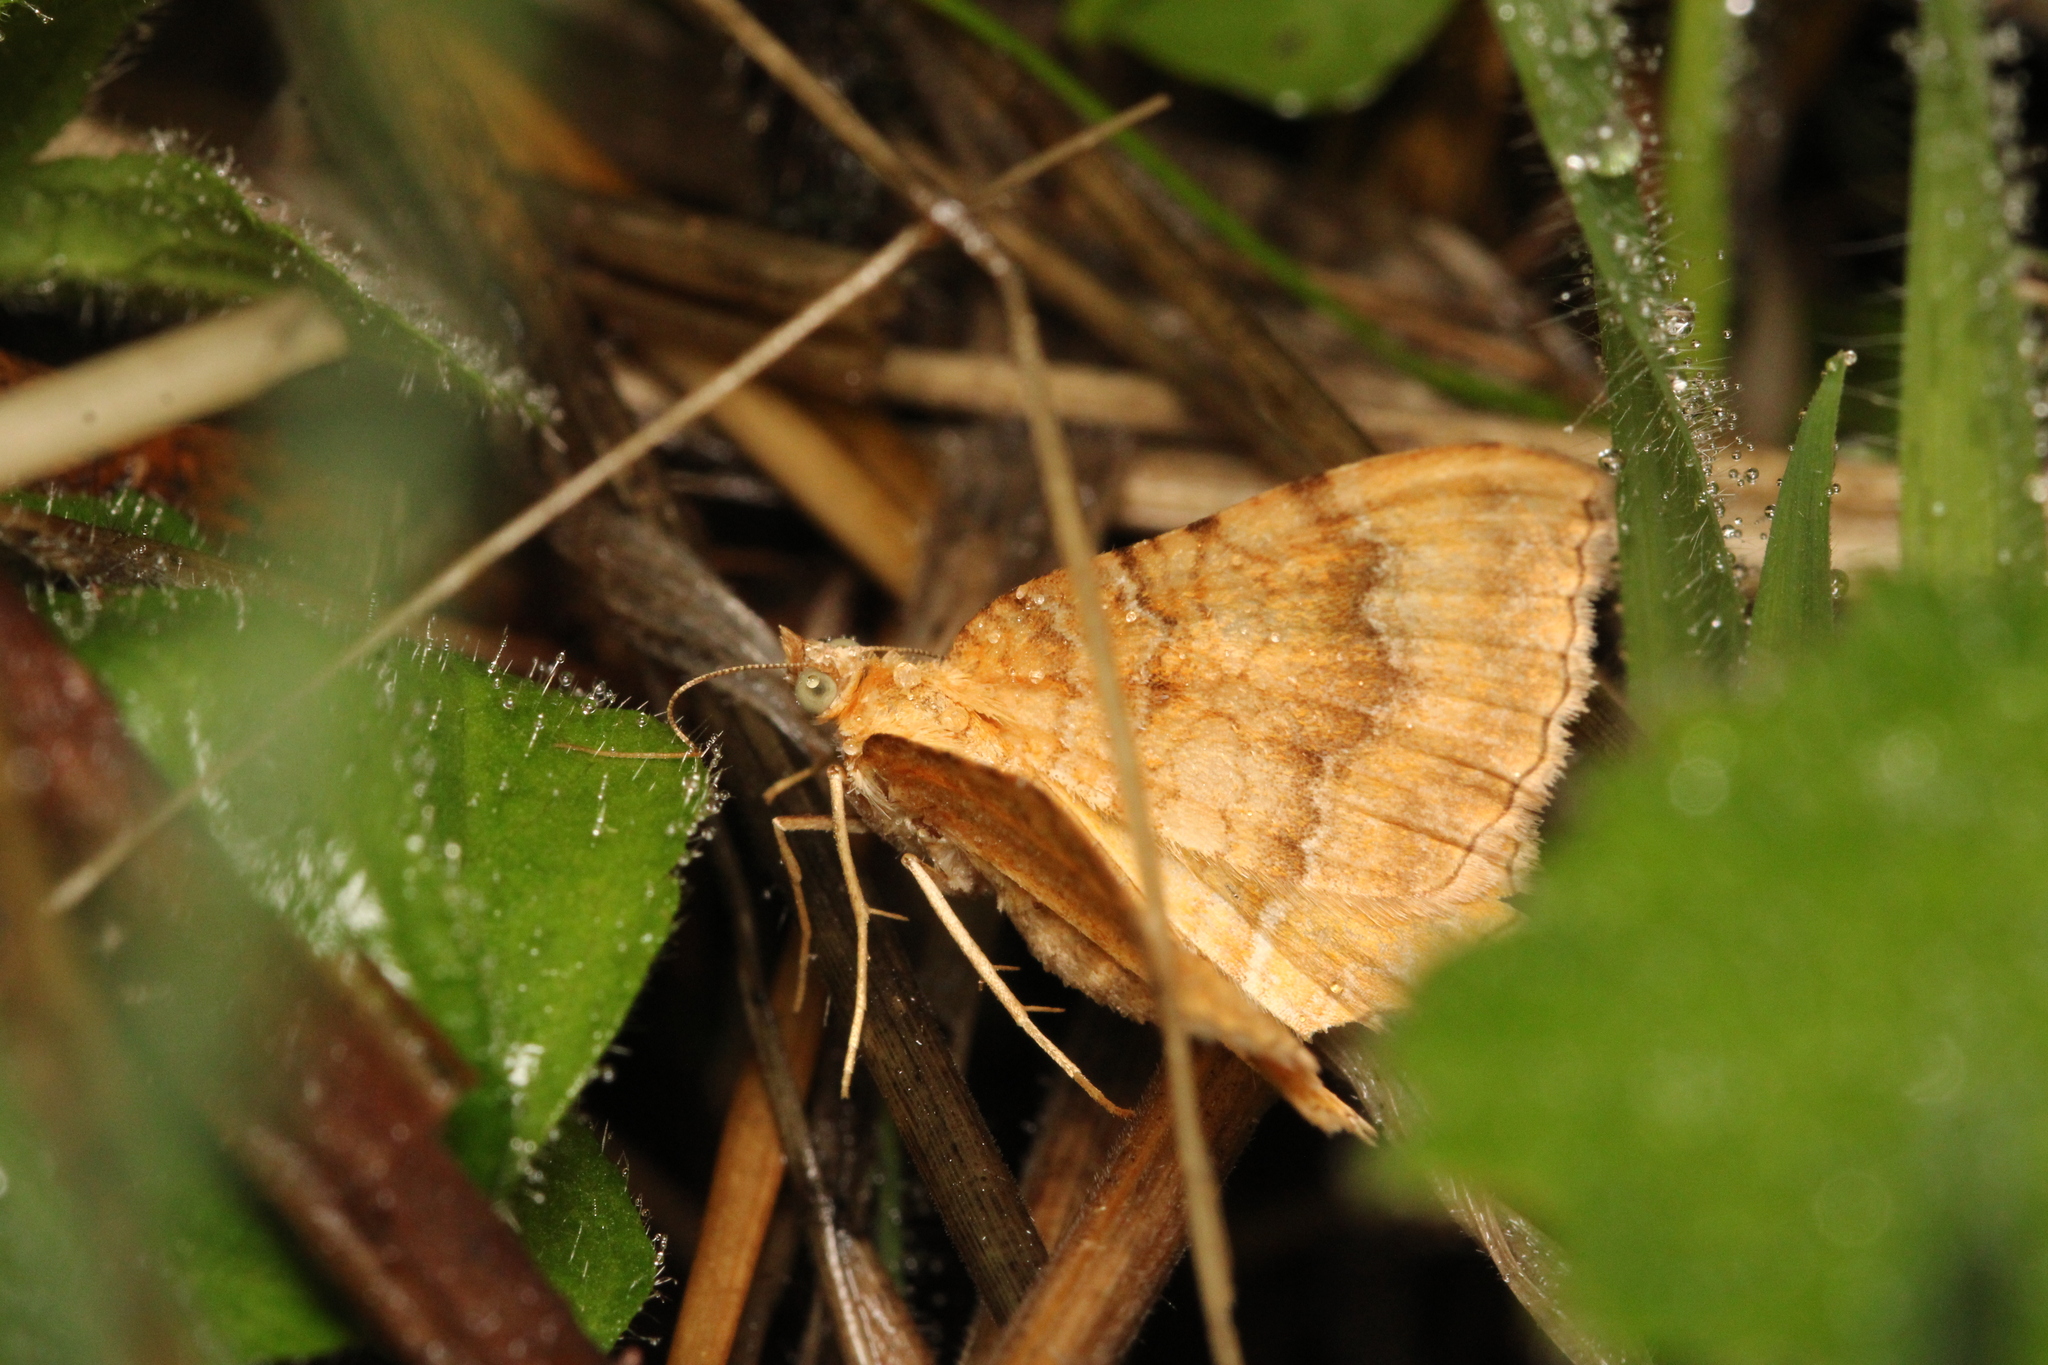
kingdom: Animalia
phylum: Arthropoda
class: Insecta
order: Lepidoptera
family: Geometridae
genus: Camptogramma
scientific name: Camptogramma bilineata
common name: Yellow shell
